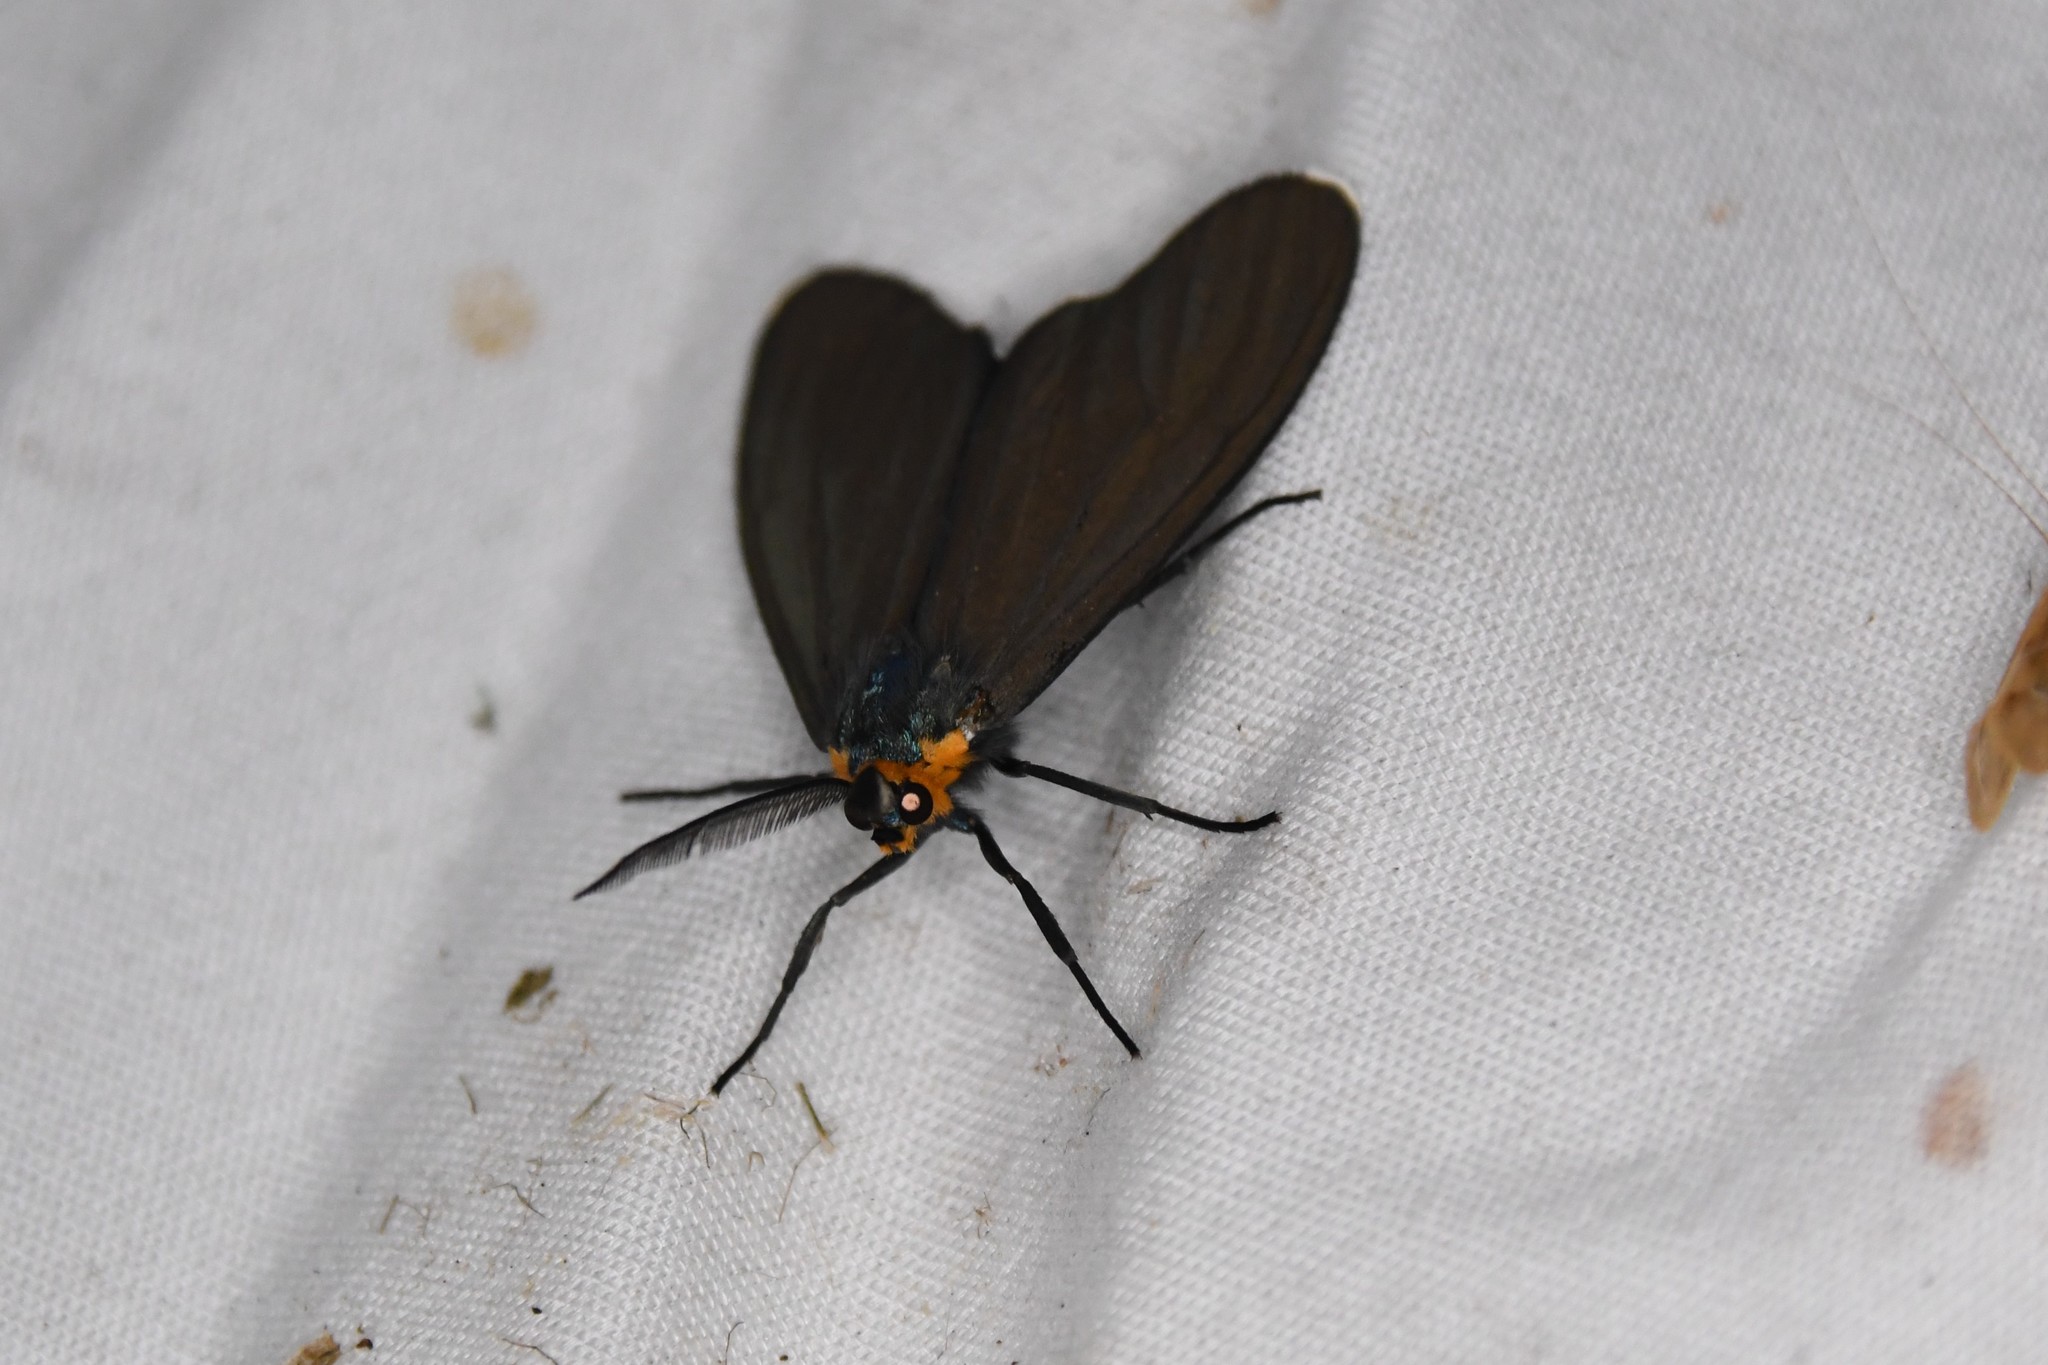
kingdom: Animalia
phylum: Arthropoda
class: Insecta
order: Lepidoptera
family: Erebidae
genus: Ctenucha
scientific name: Ctenucha virginica
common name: Virginia ctenucha moth
